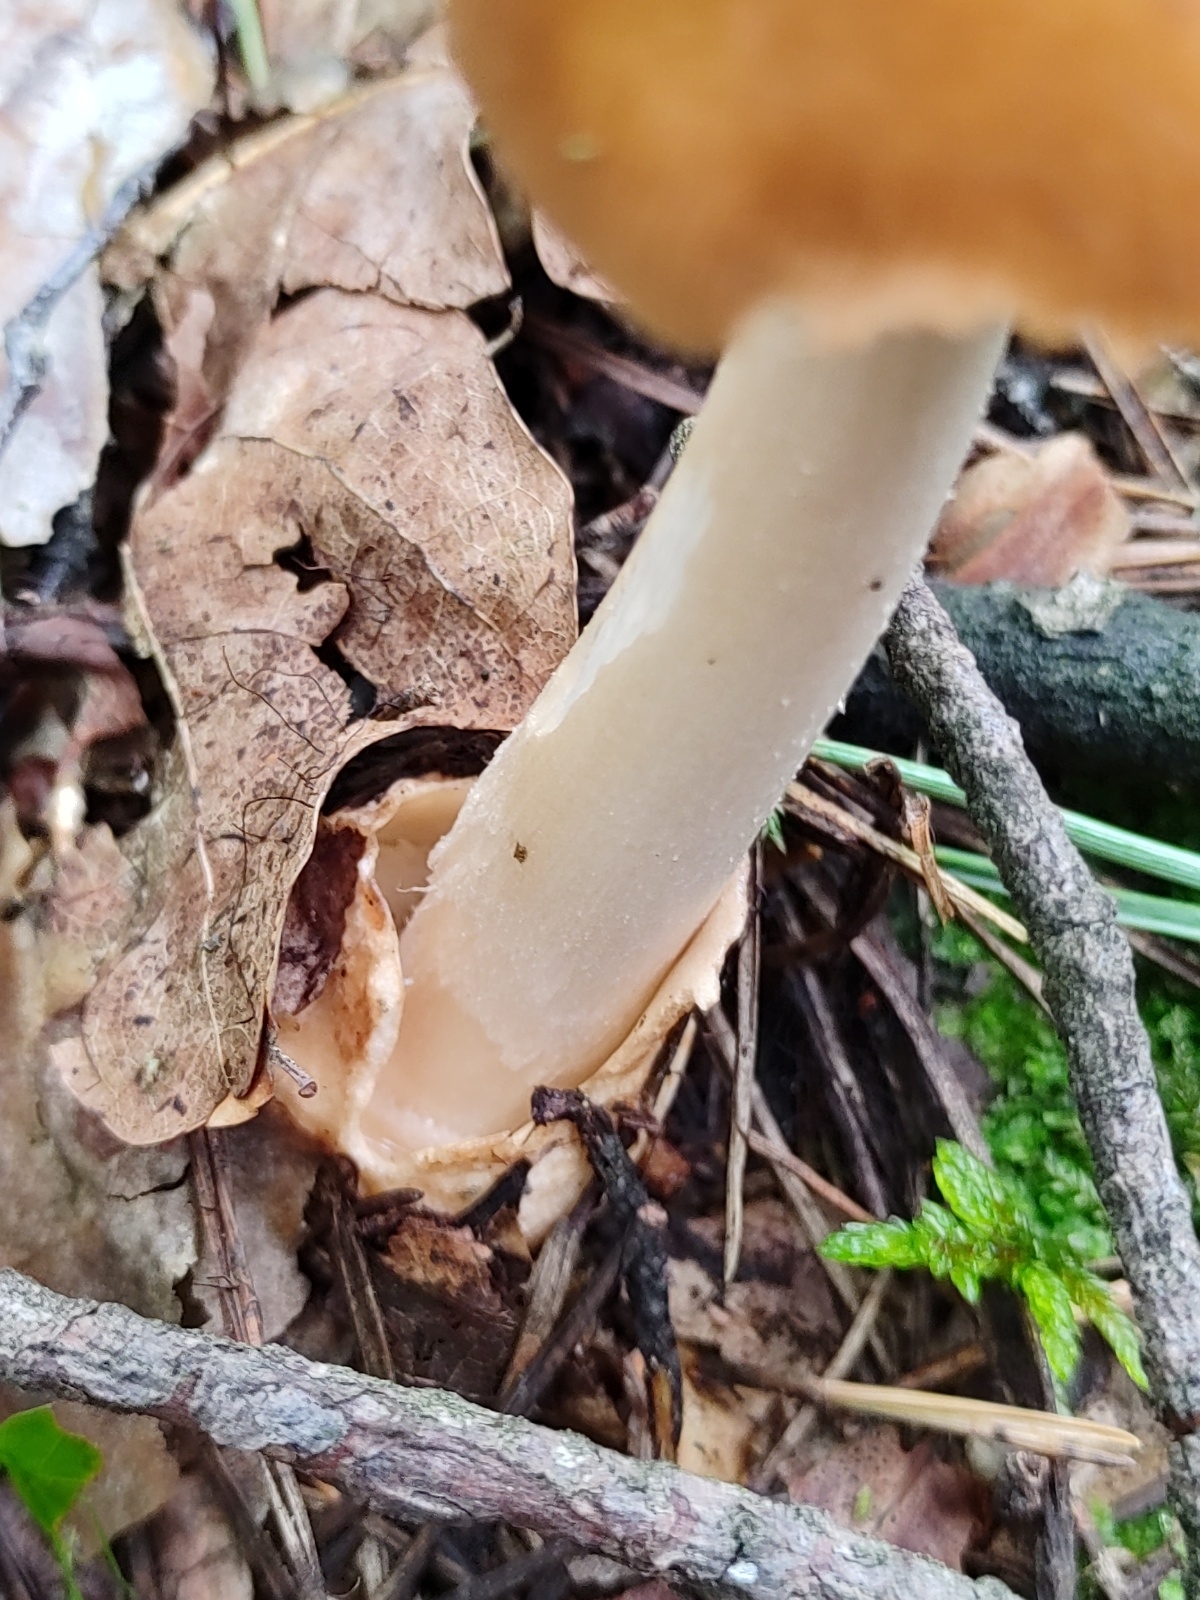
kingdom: Fungi
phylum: Basidiomycota
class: Agaricomycetes
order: Agaricales
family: Amanitaceae
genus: Amanita
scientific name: Amanita fulva
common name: Tawny grisette
